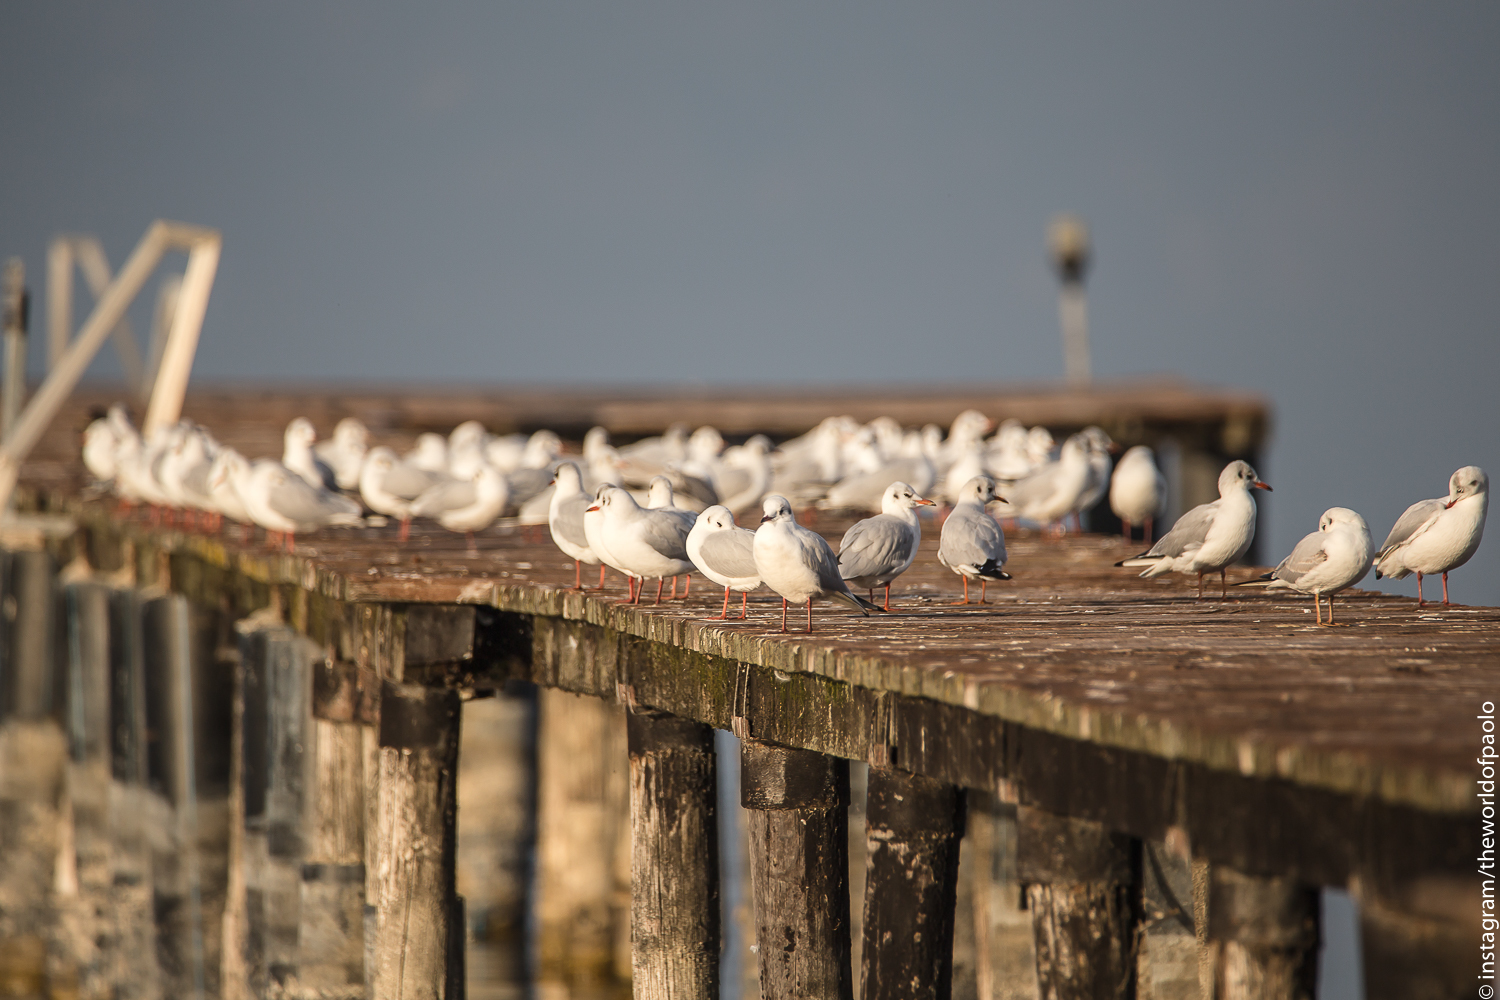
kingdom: Animalia
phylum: Chordata
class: Aves
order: Charadriiformes
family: Laridae
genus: Chroicocephalus
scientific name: Chroicocephalus ridibundus
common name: Black-headed gull
